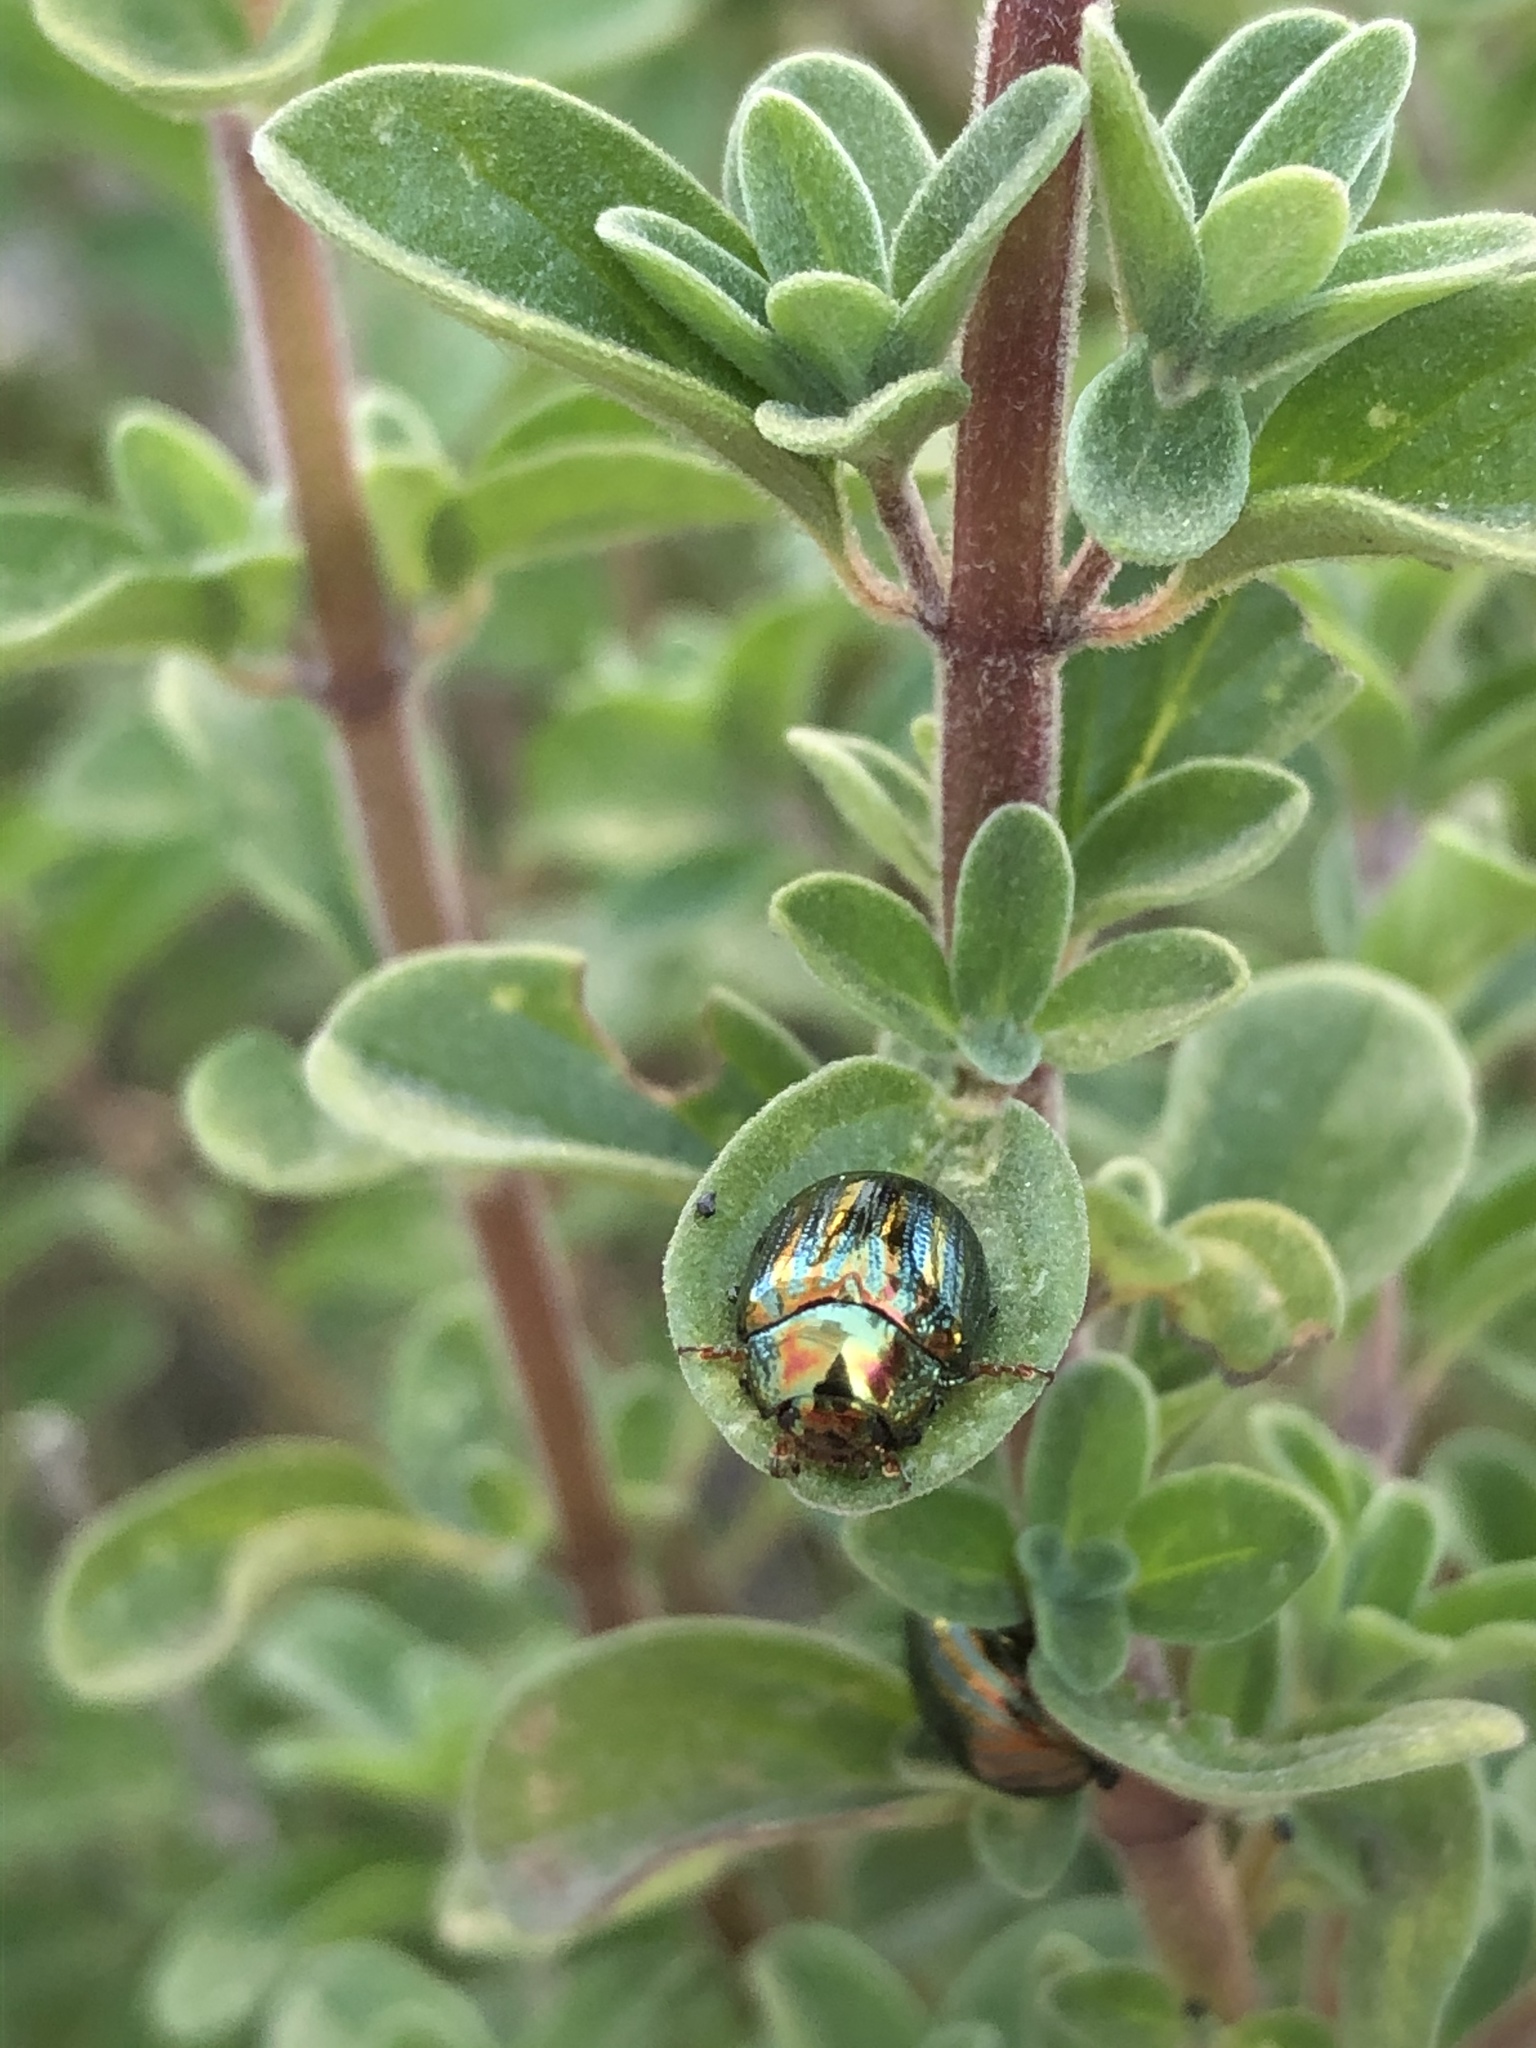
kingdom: Animalia
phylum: Arthropoda
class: Insecta
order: Coleoptera
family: Chrysomelidae
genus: Chrysolina
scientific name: Chrysolina americana
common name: Rosemary beetle
